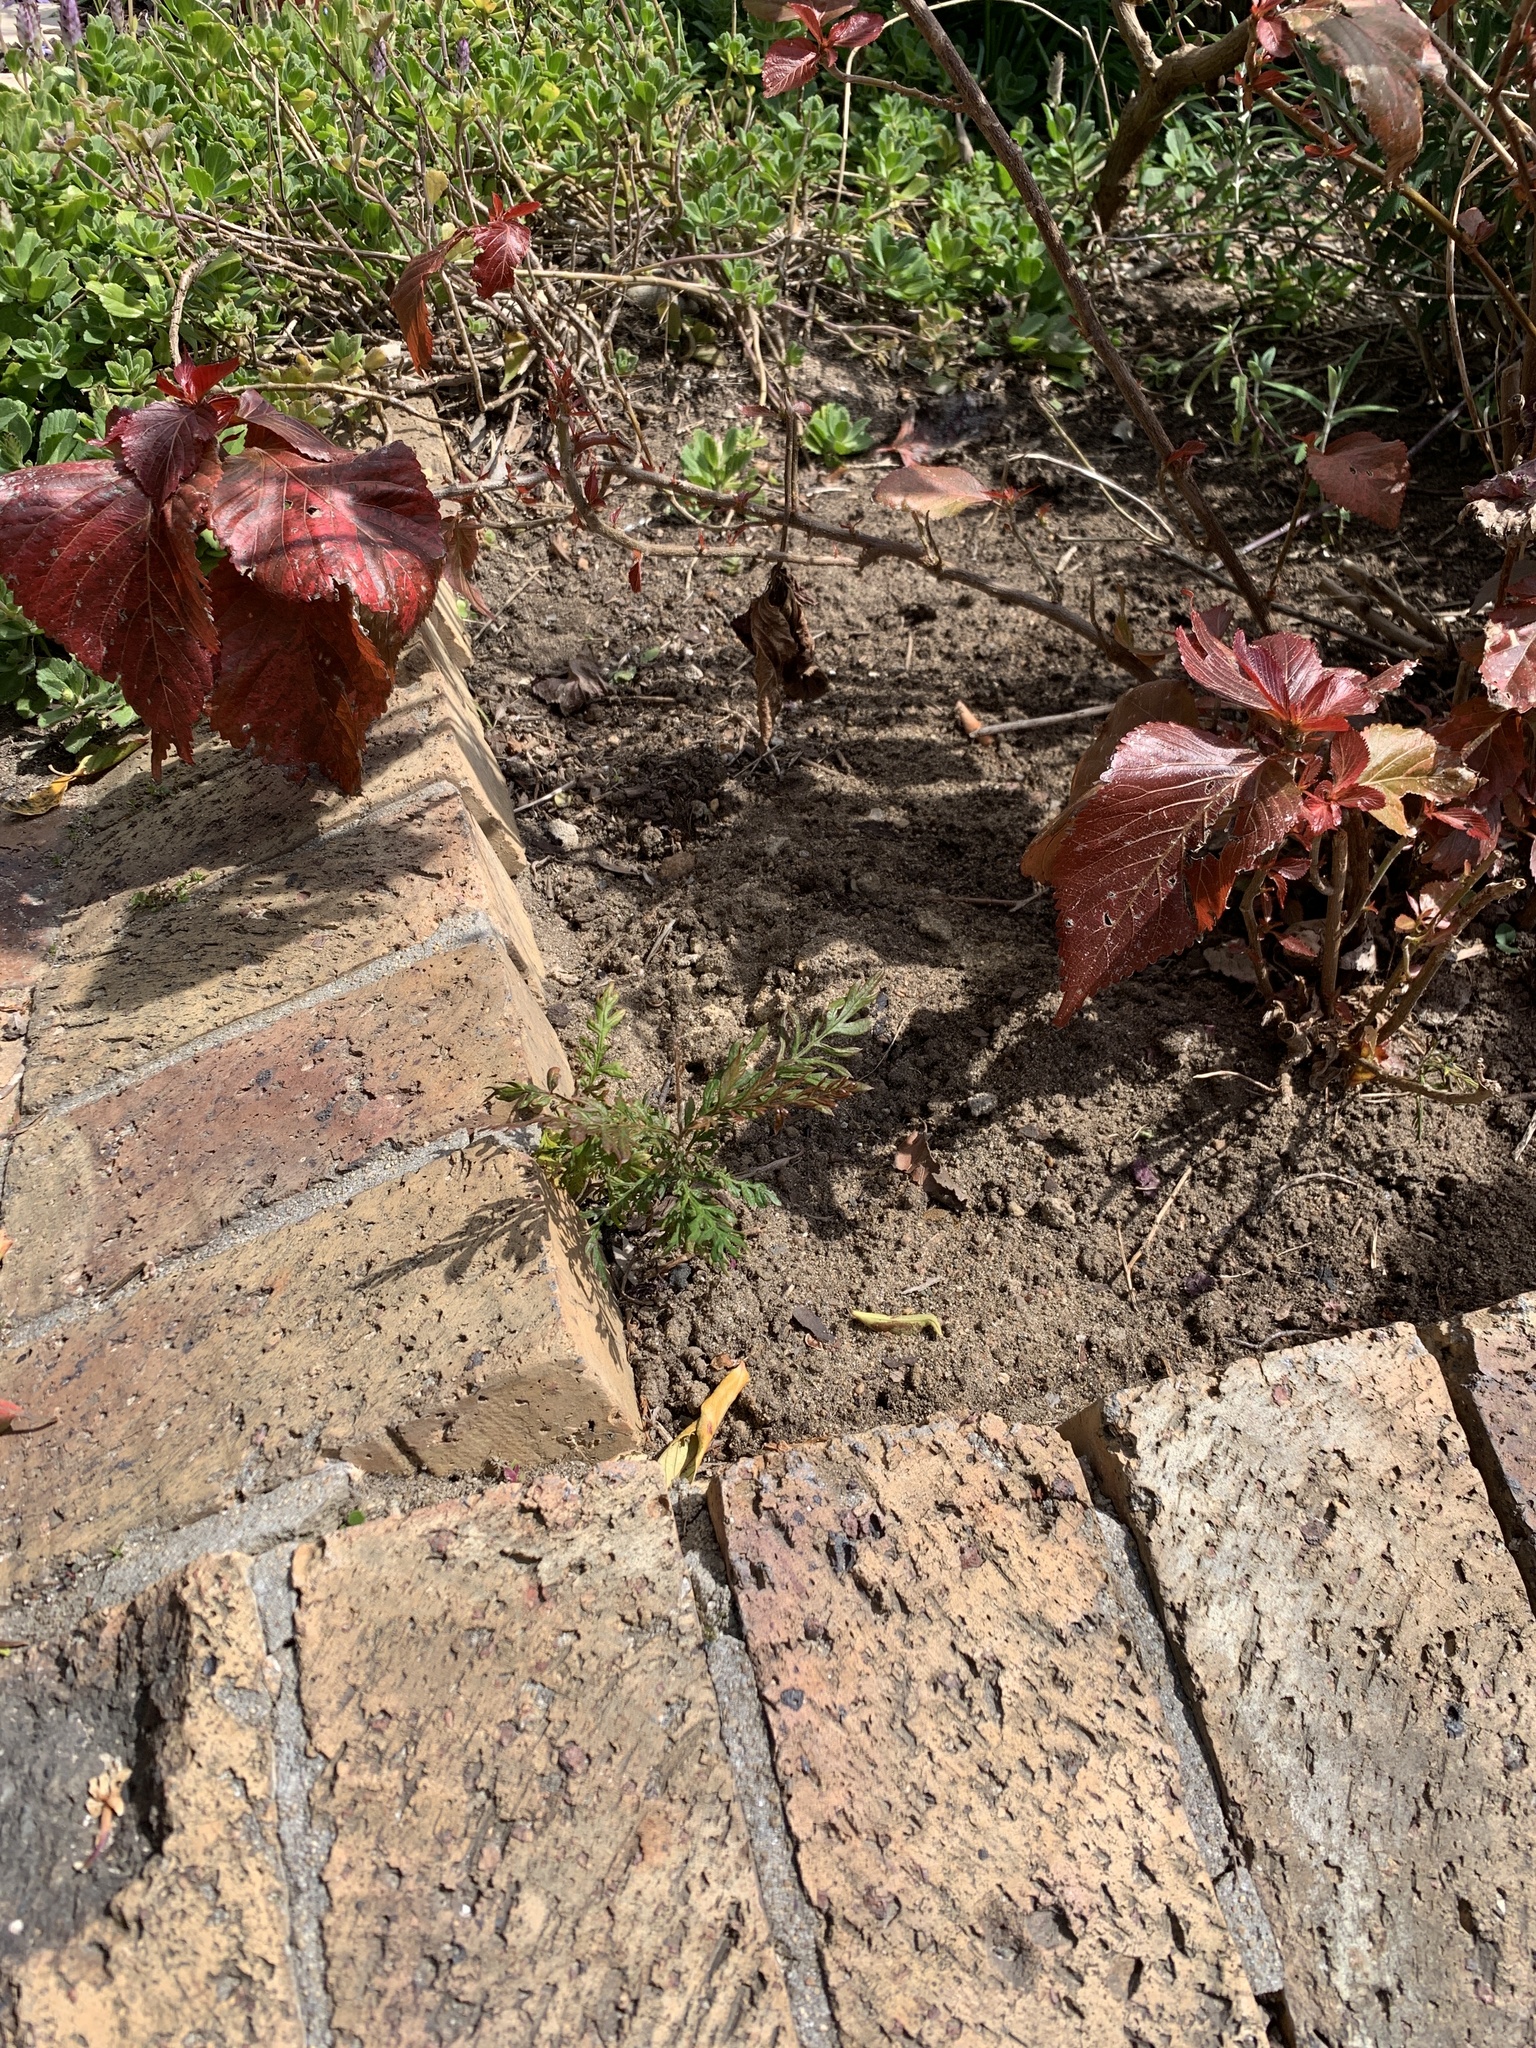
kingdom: Plantae
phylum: Tracheophyta
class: Magnoliopsida
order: Proteales
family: Proteaceae
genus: Grevillea
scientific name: Grevillea robusta
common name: Silkoak
